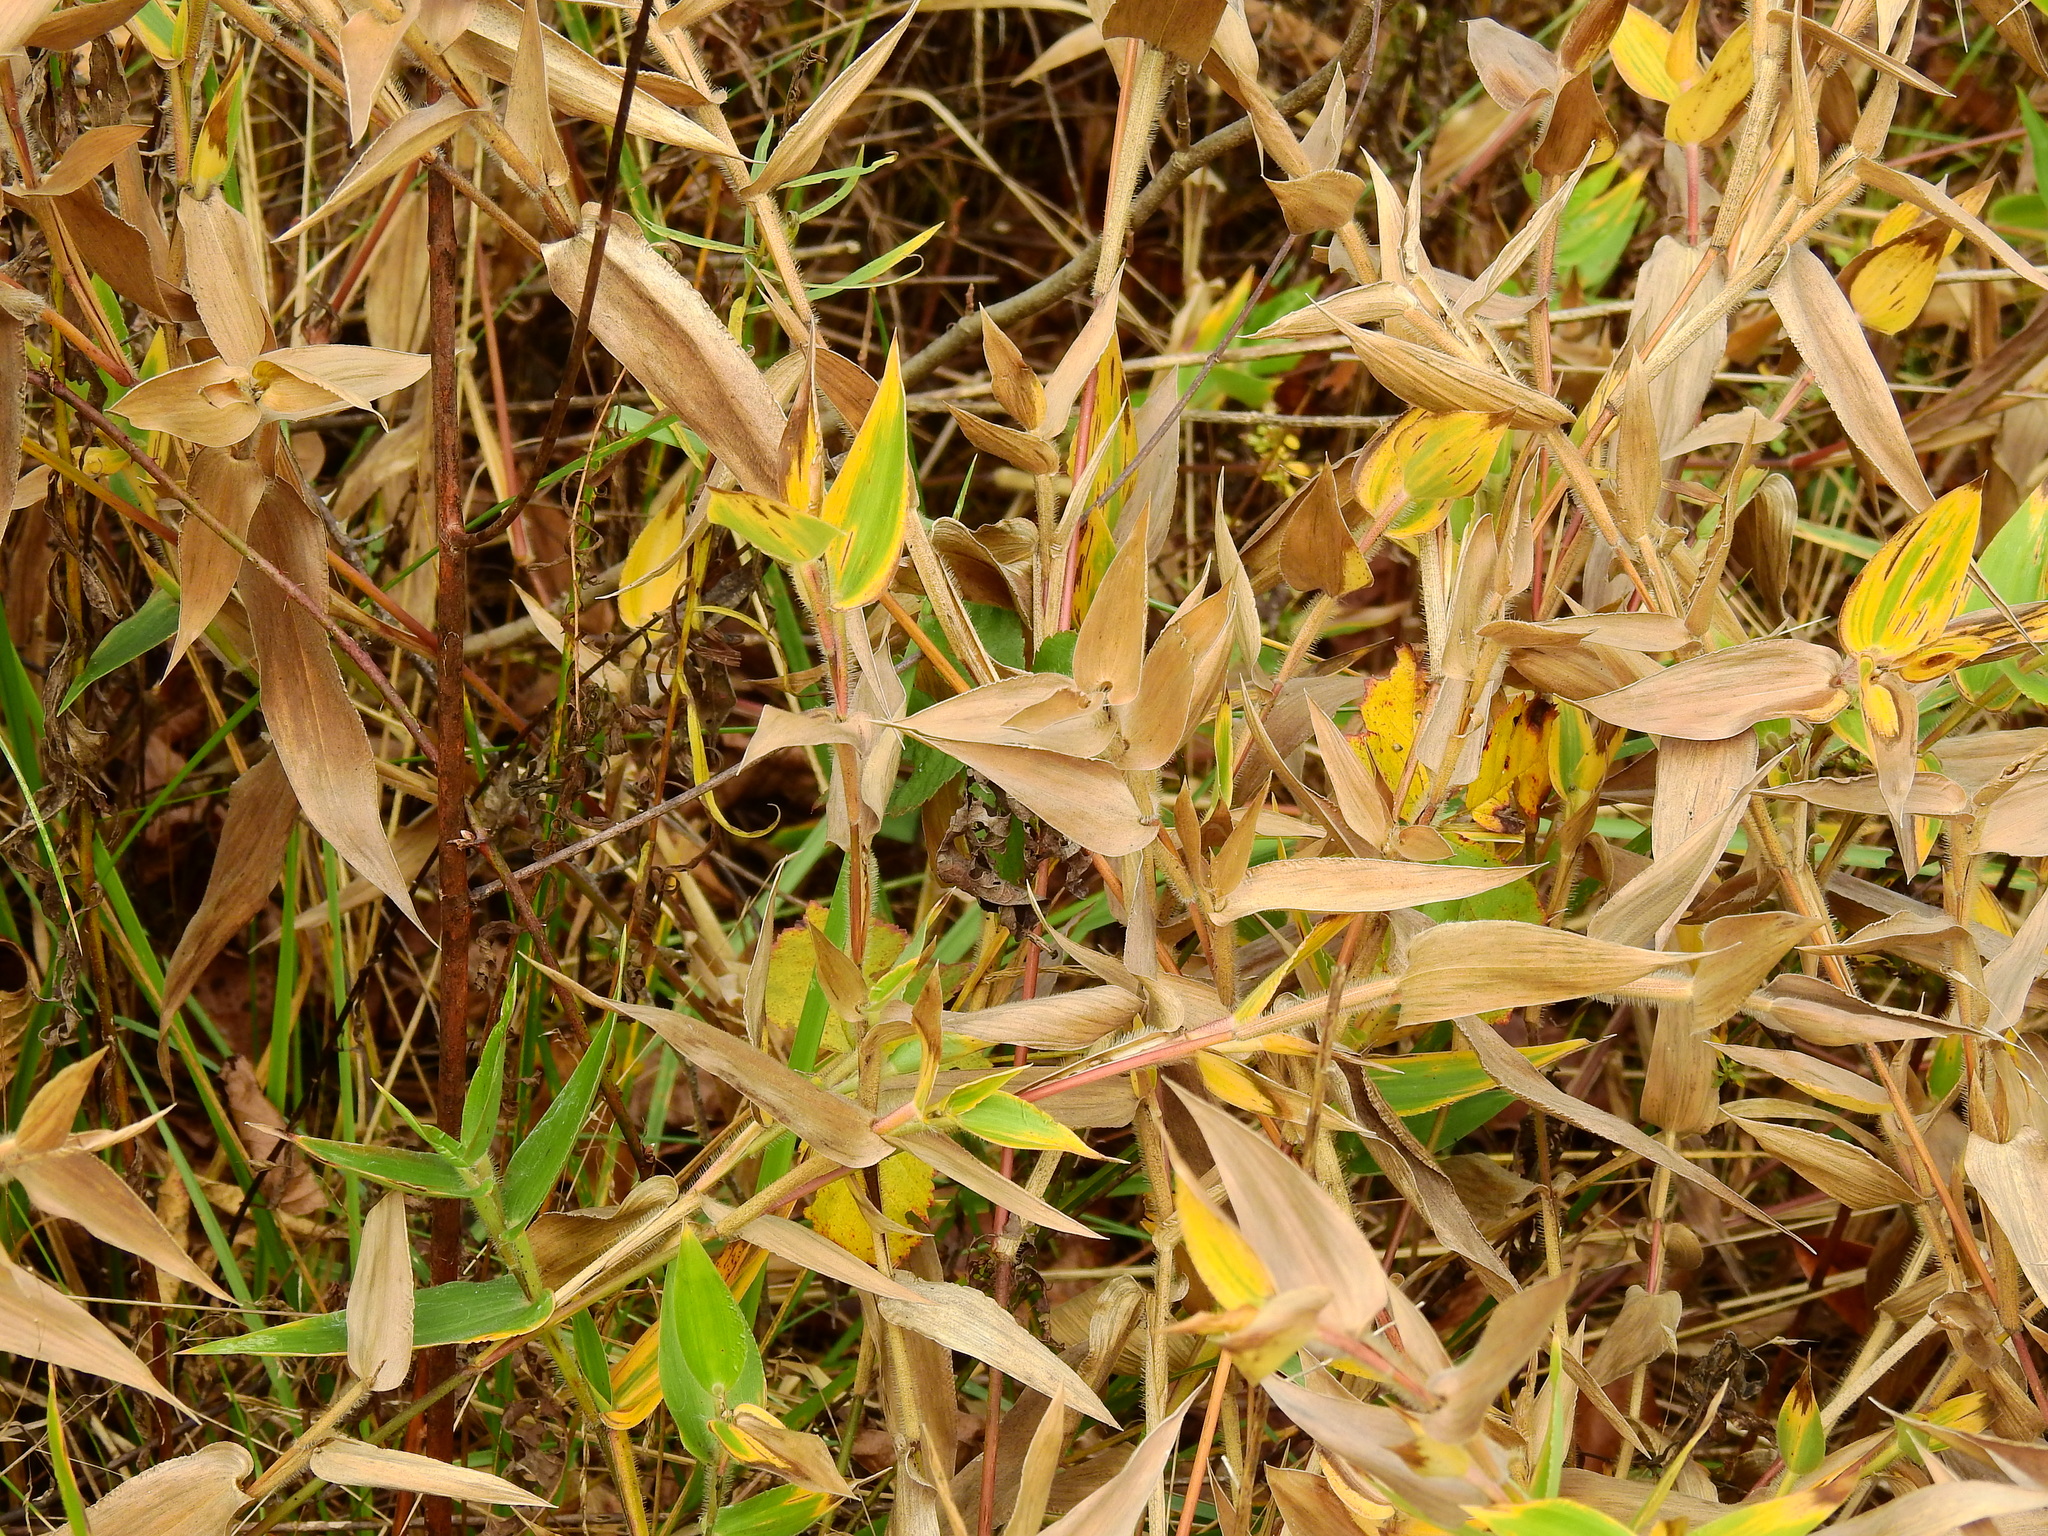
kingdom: Plantae
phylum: Tracheophyta
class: Liliopsida
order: Poales
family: Poaceae
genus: Dichanthelium
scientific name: Dichanthelium clandestinum
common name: Deer-tongue grass
